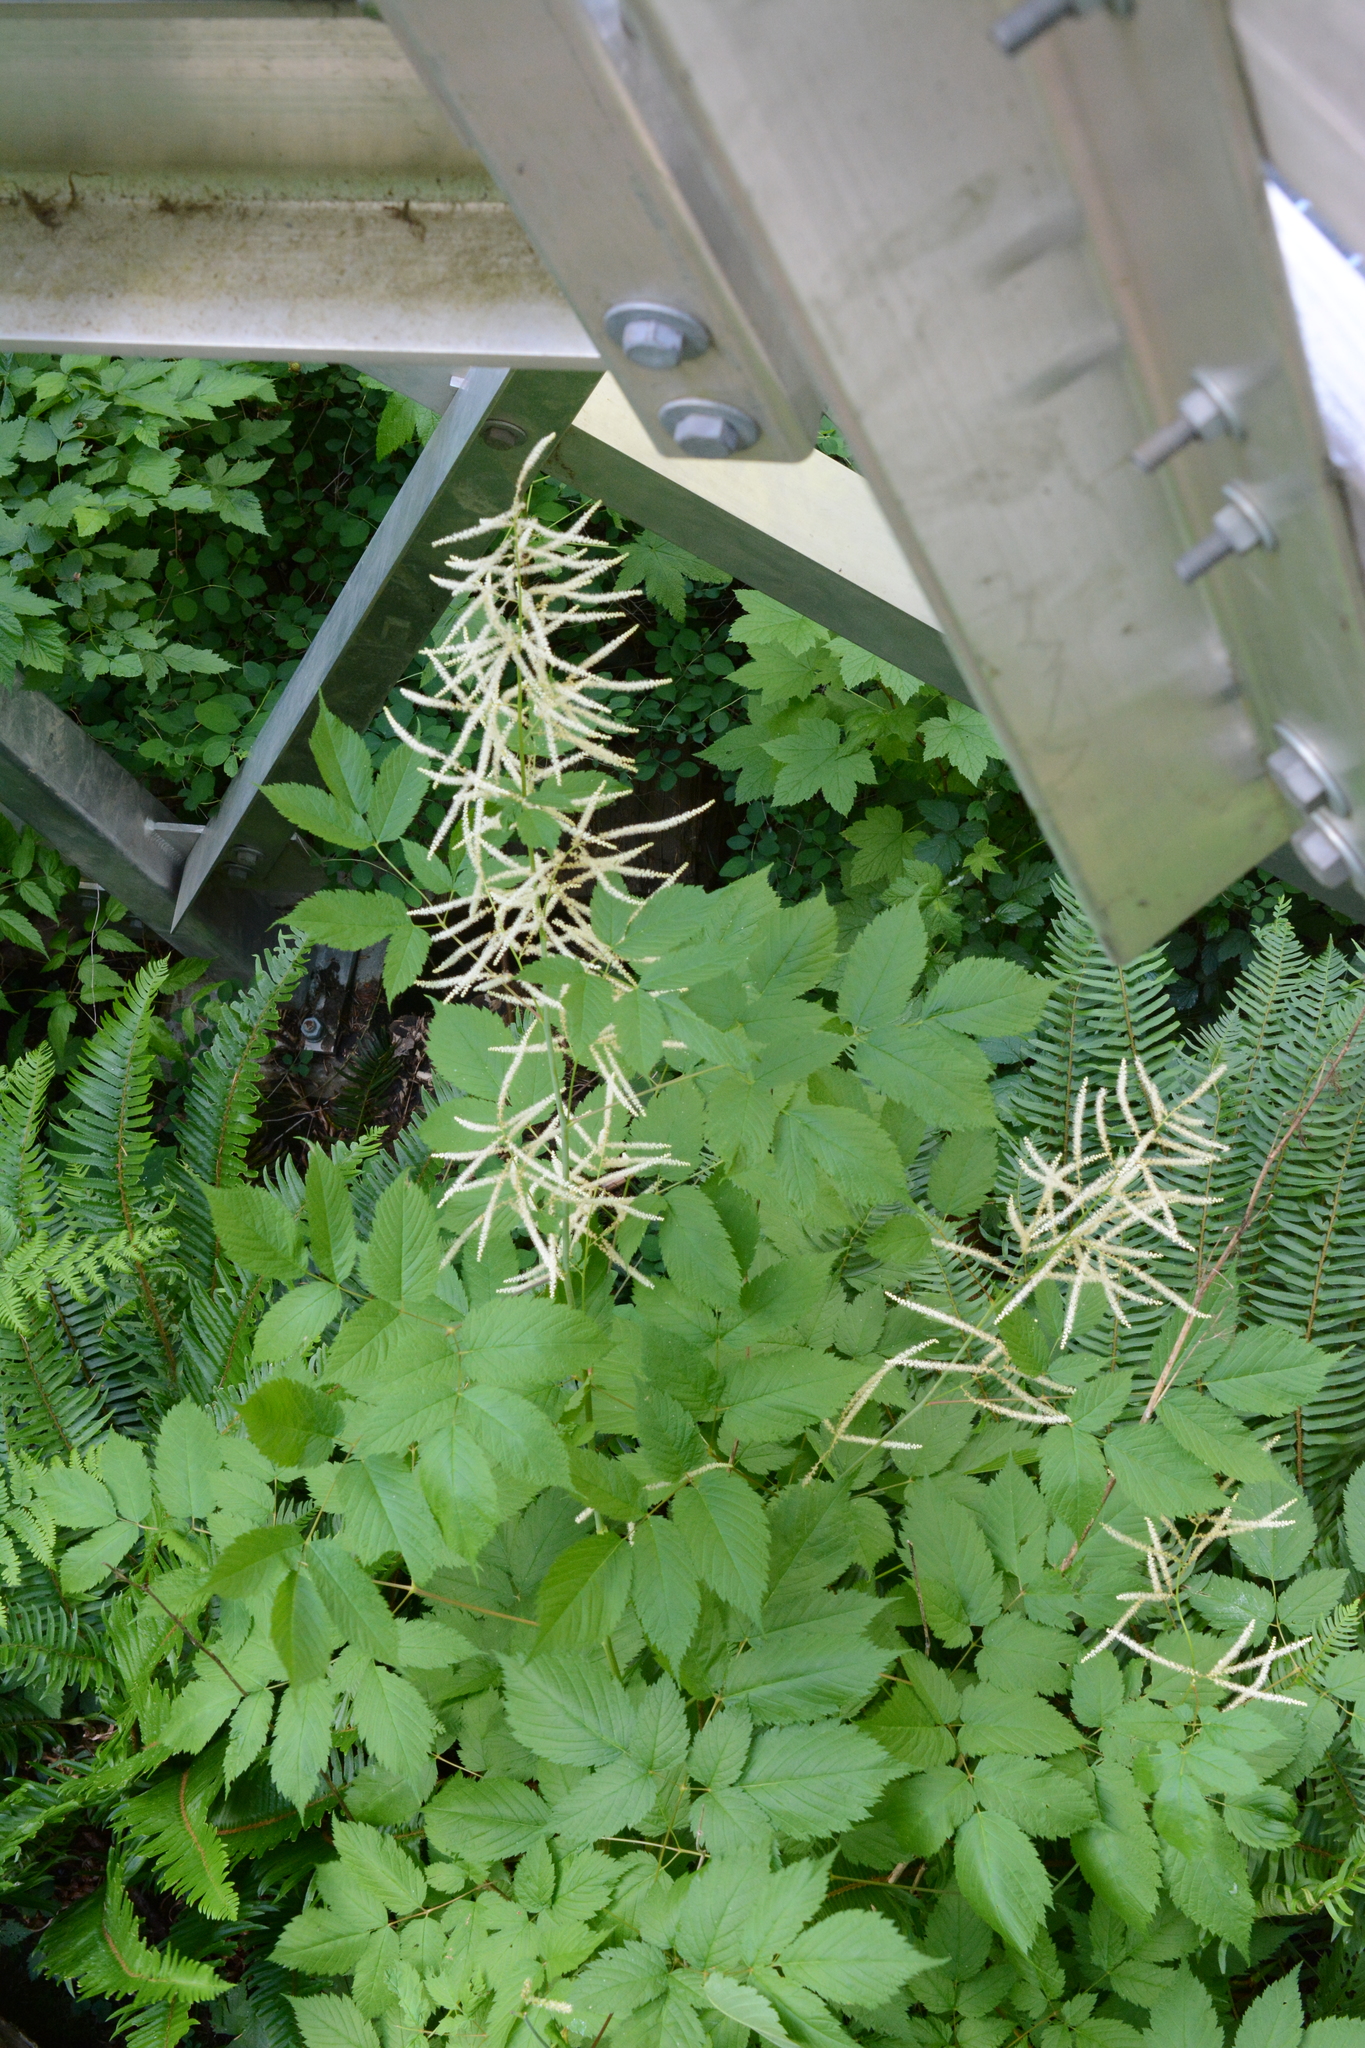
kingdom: Plantae
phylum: Tracheophyta
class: Magnoliopsida
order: Rosales
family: Rosaceae
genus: Aruncus
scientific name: Aruncus dioicus
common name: Buck's-beard
